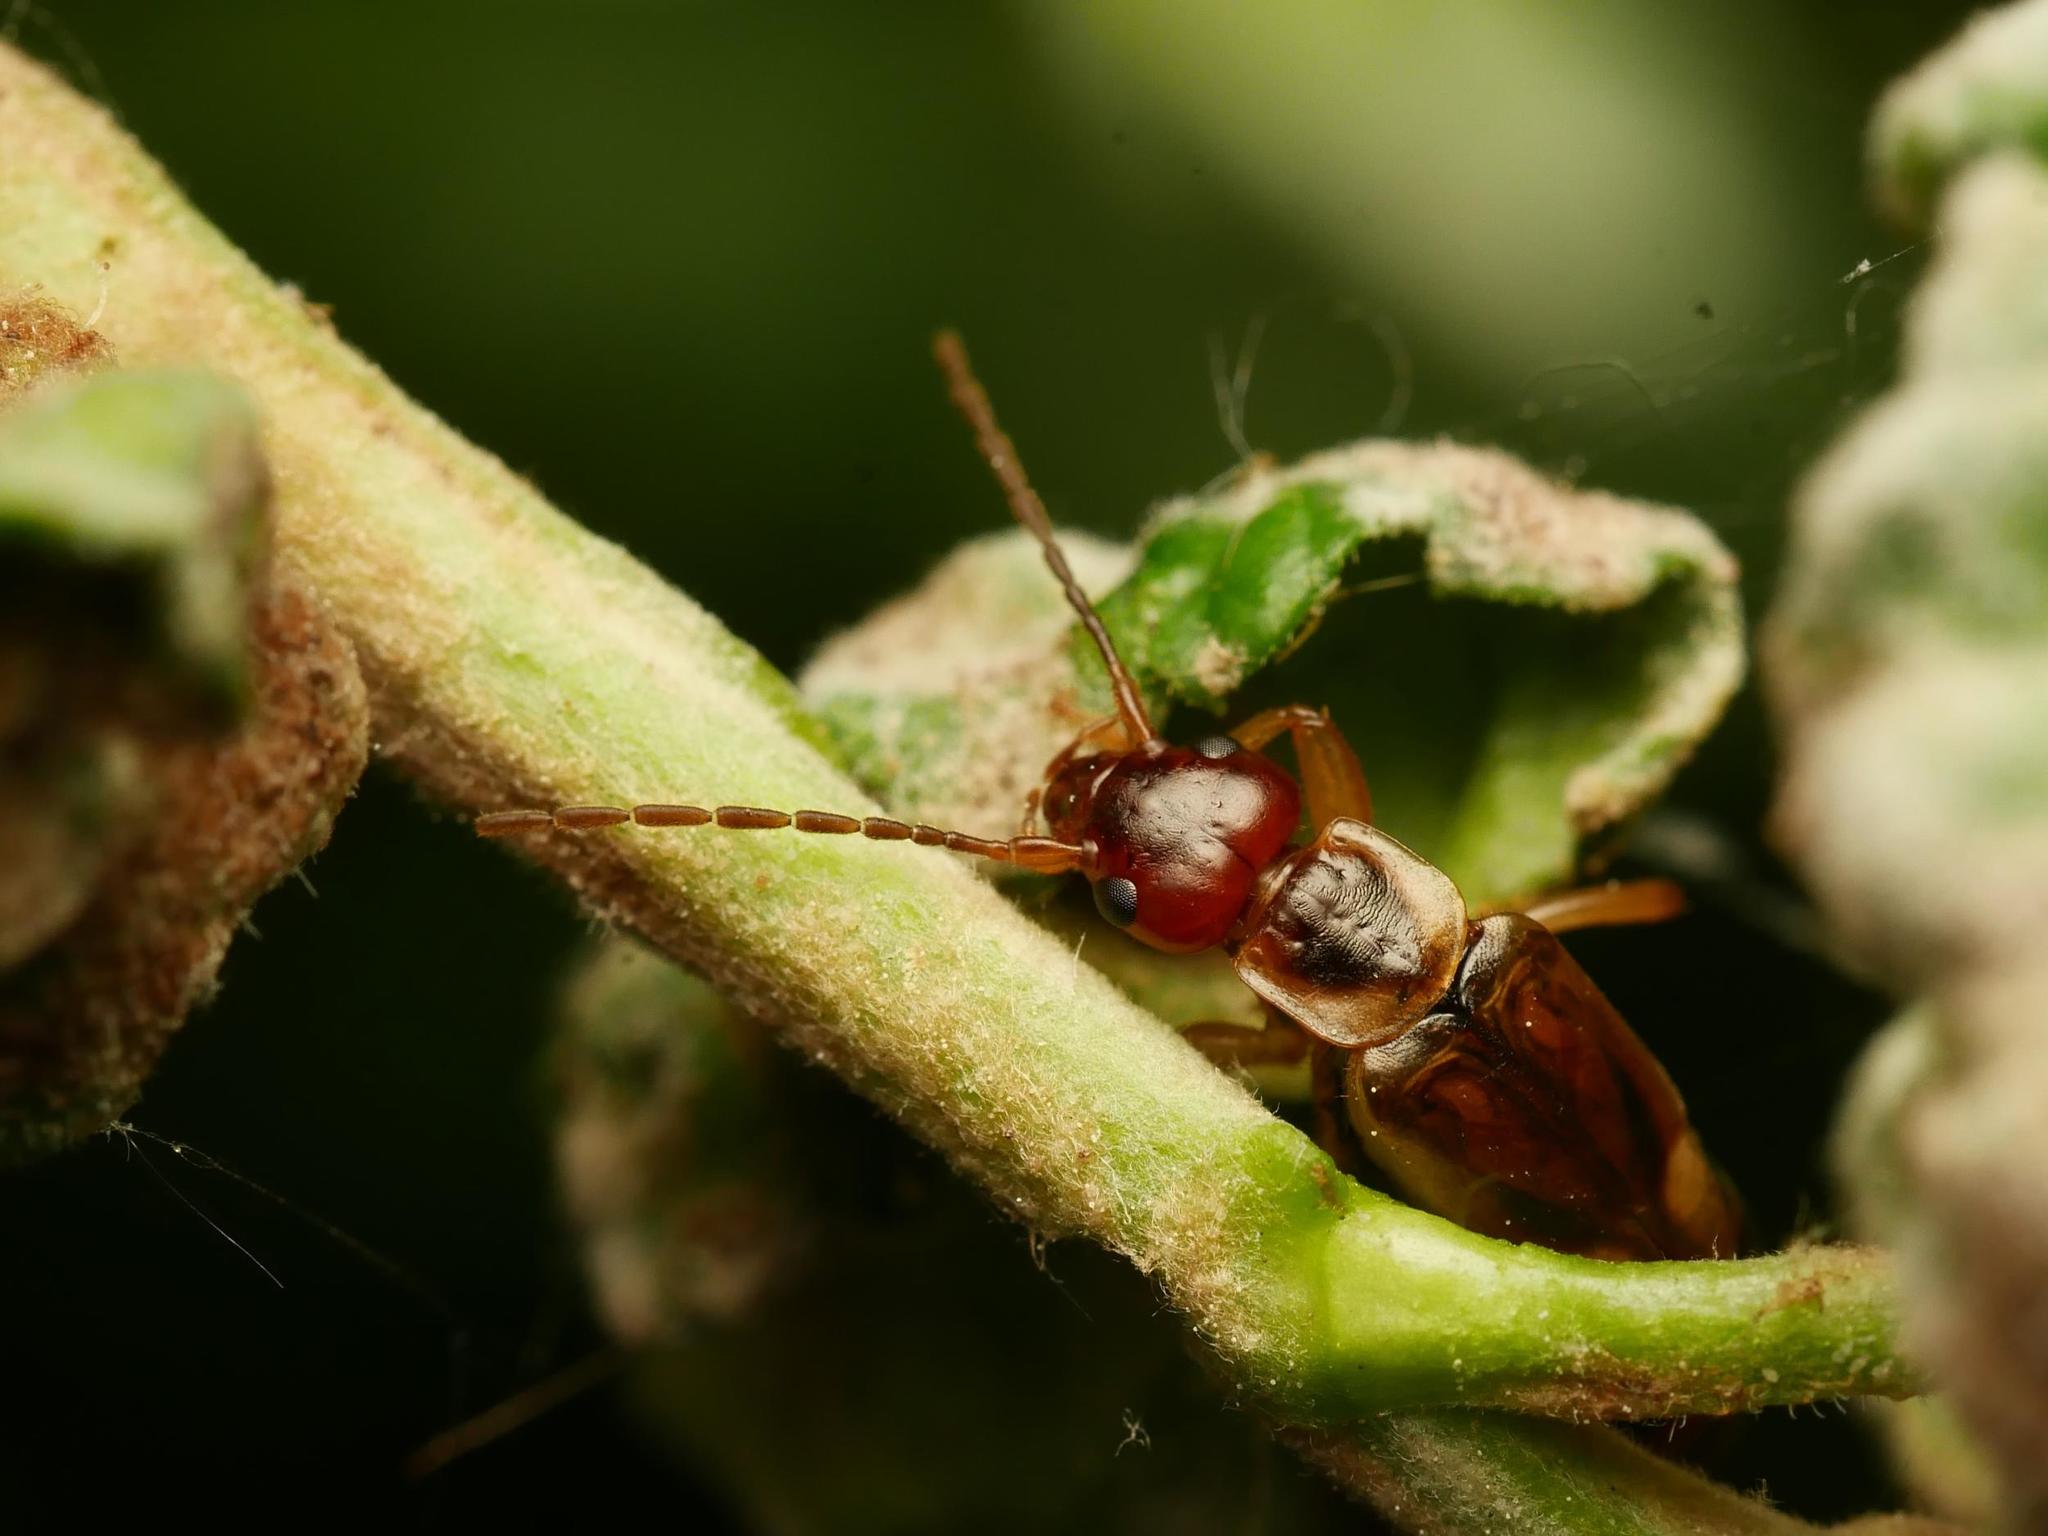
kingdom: Animalia
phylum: Arthropoda
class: Insecta
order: Dermaptera
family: Forficulidae
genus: Forficula
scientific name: Forficula
